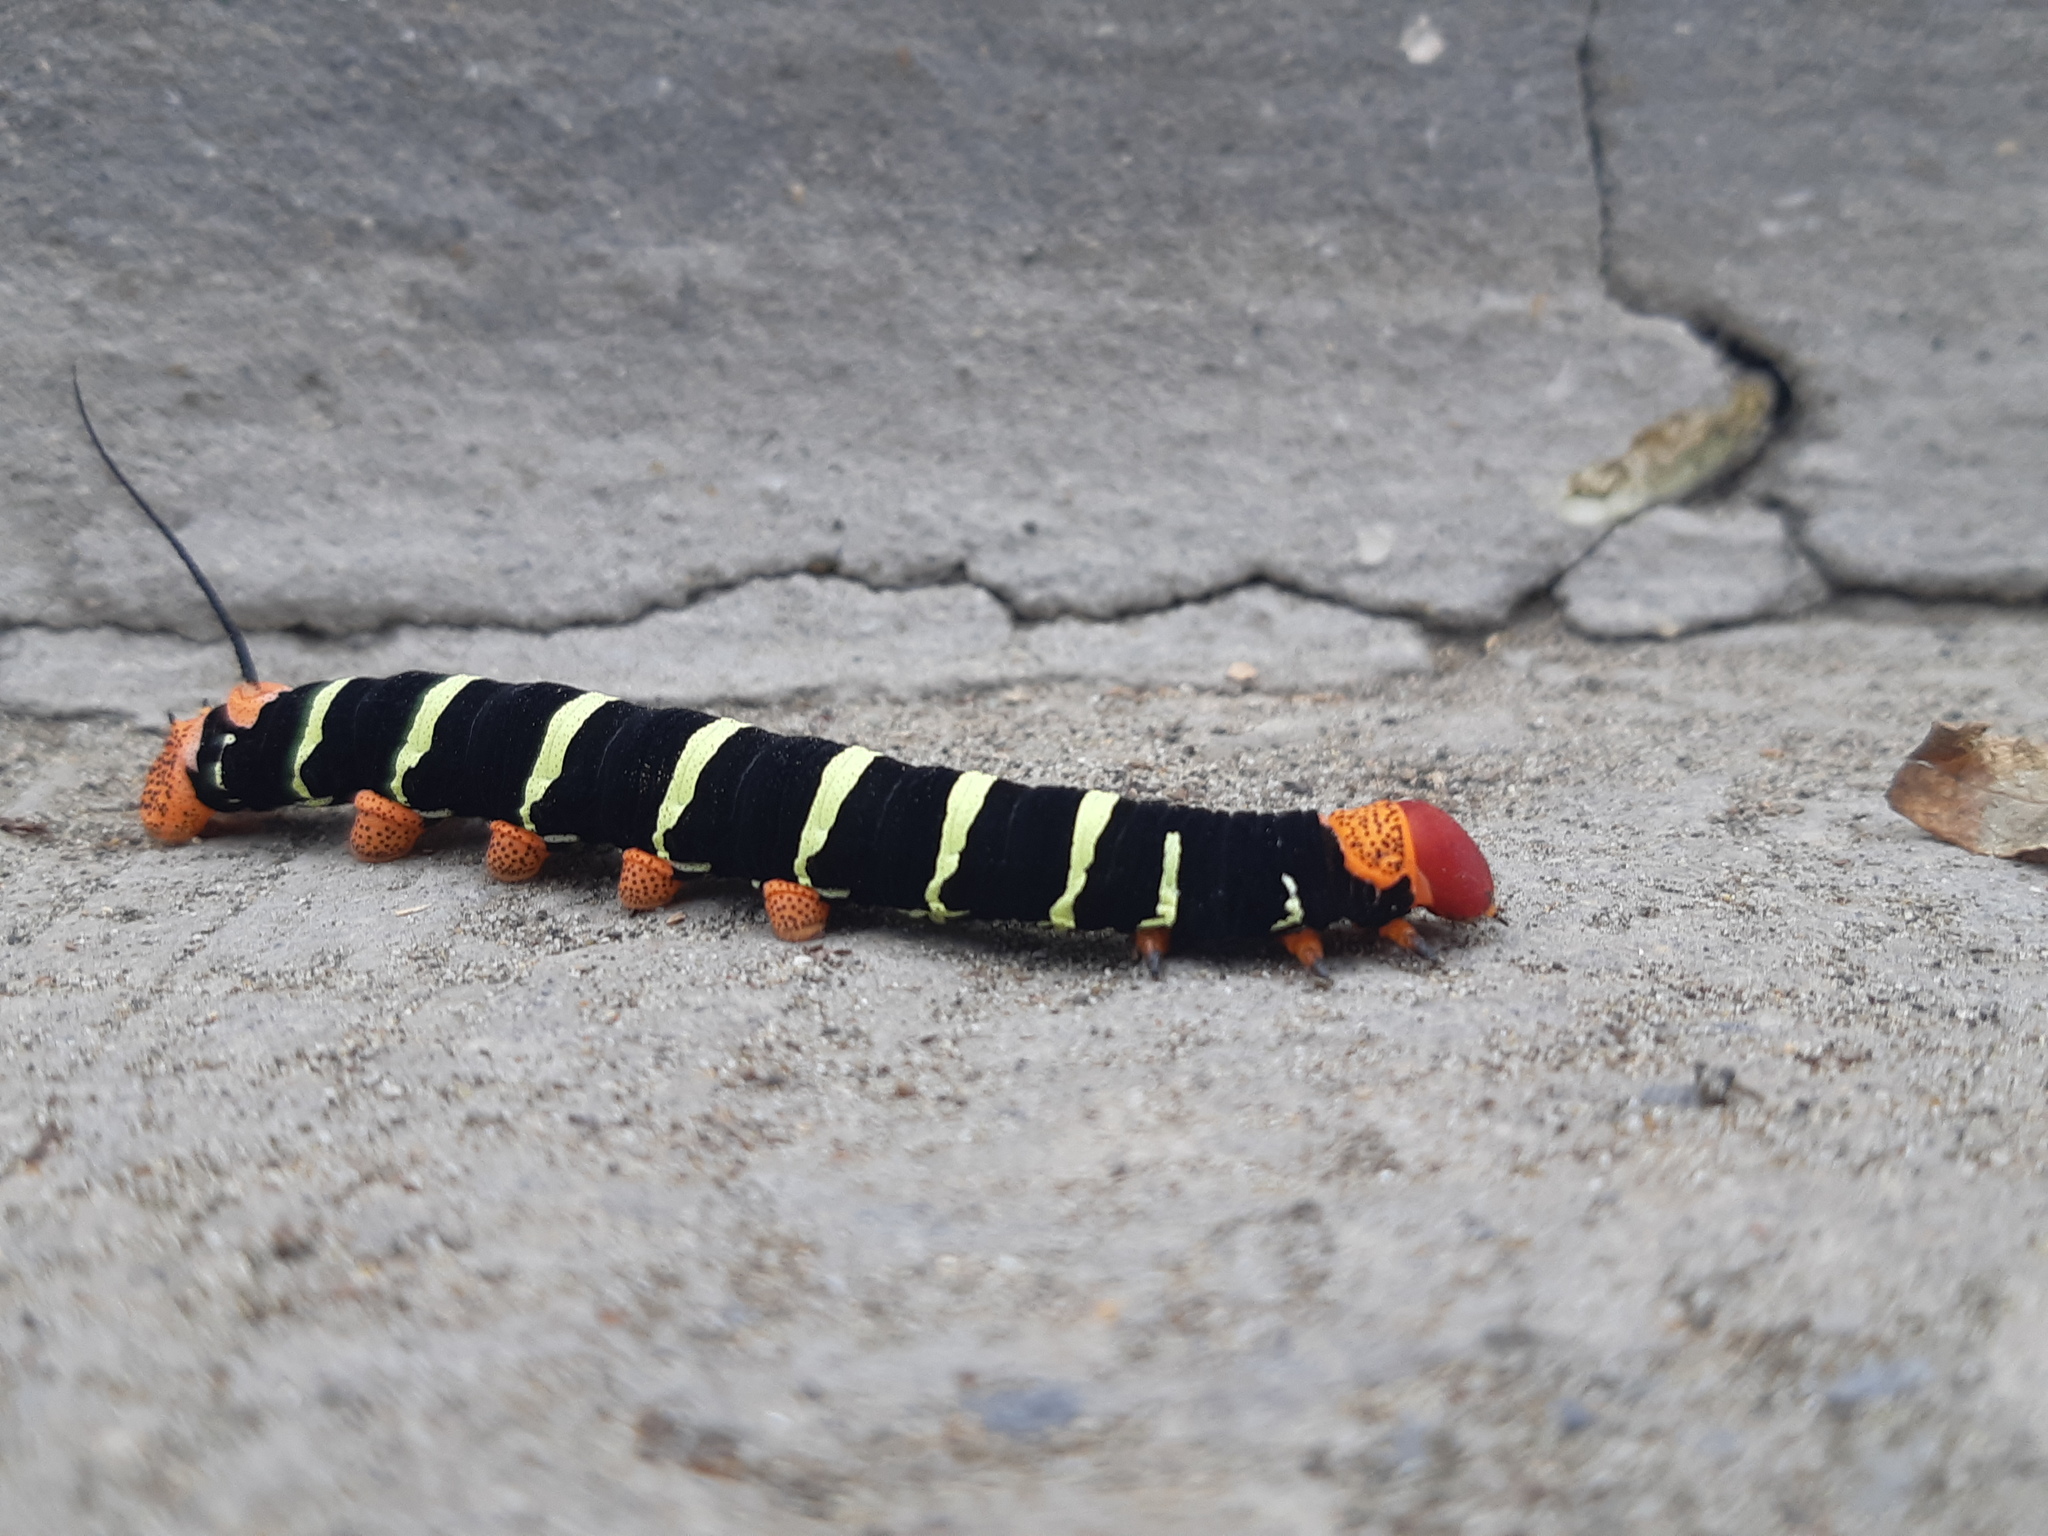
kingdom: Animalia
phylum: Arthropoda
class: Insecta
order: Lepidoptera
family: Sphingidae
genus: Pseudosphinx
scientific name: Pseudosphinx tetrio
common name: Tetrio sphinx
